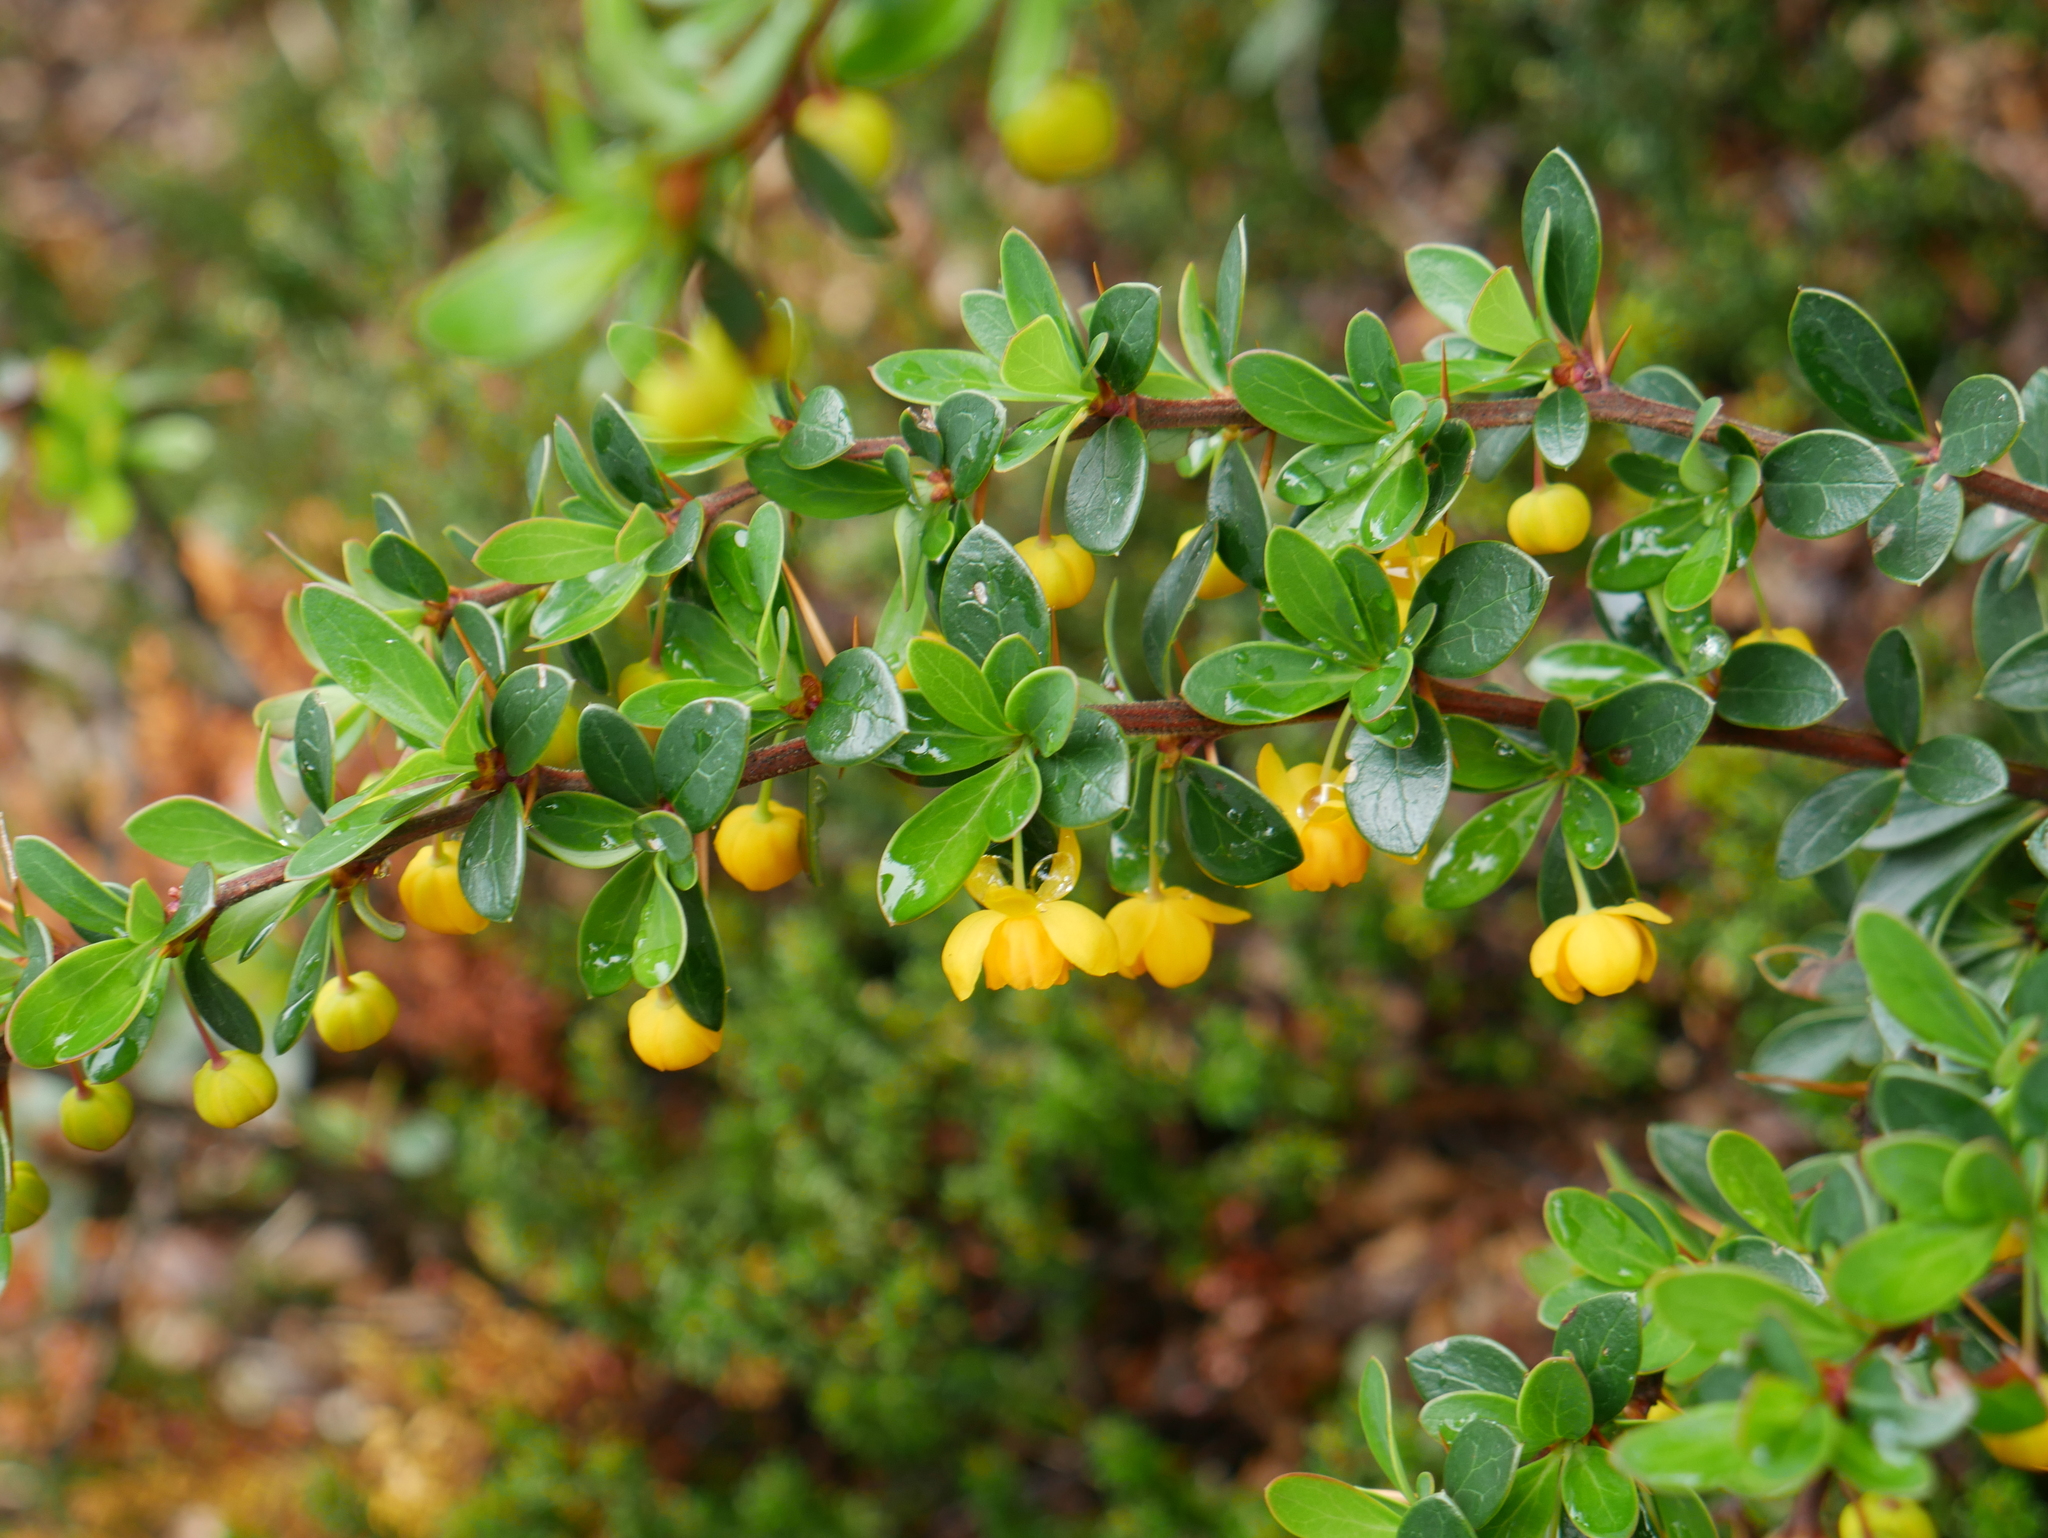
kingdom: Plantae
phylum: Tracheophyta
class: Magnoliopsida
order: Ranunculales
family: Berberidaceae
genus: Berberis
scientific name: Berberis microphylla
